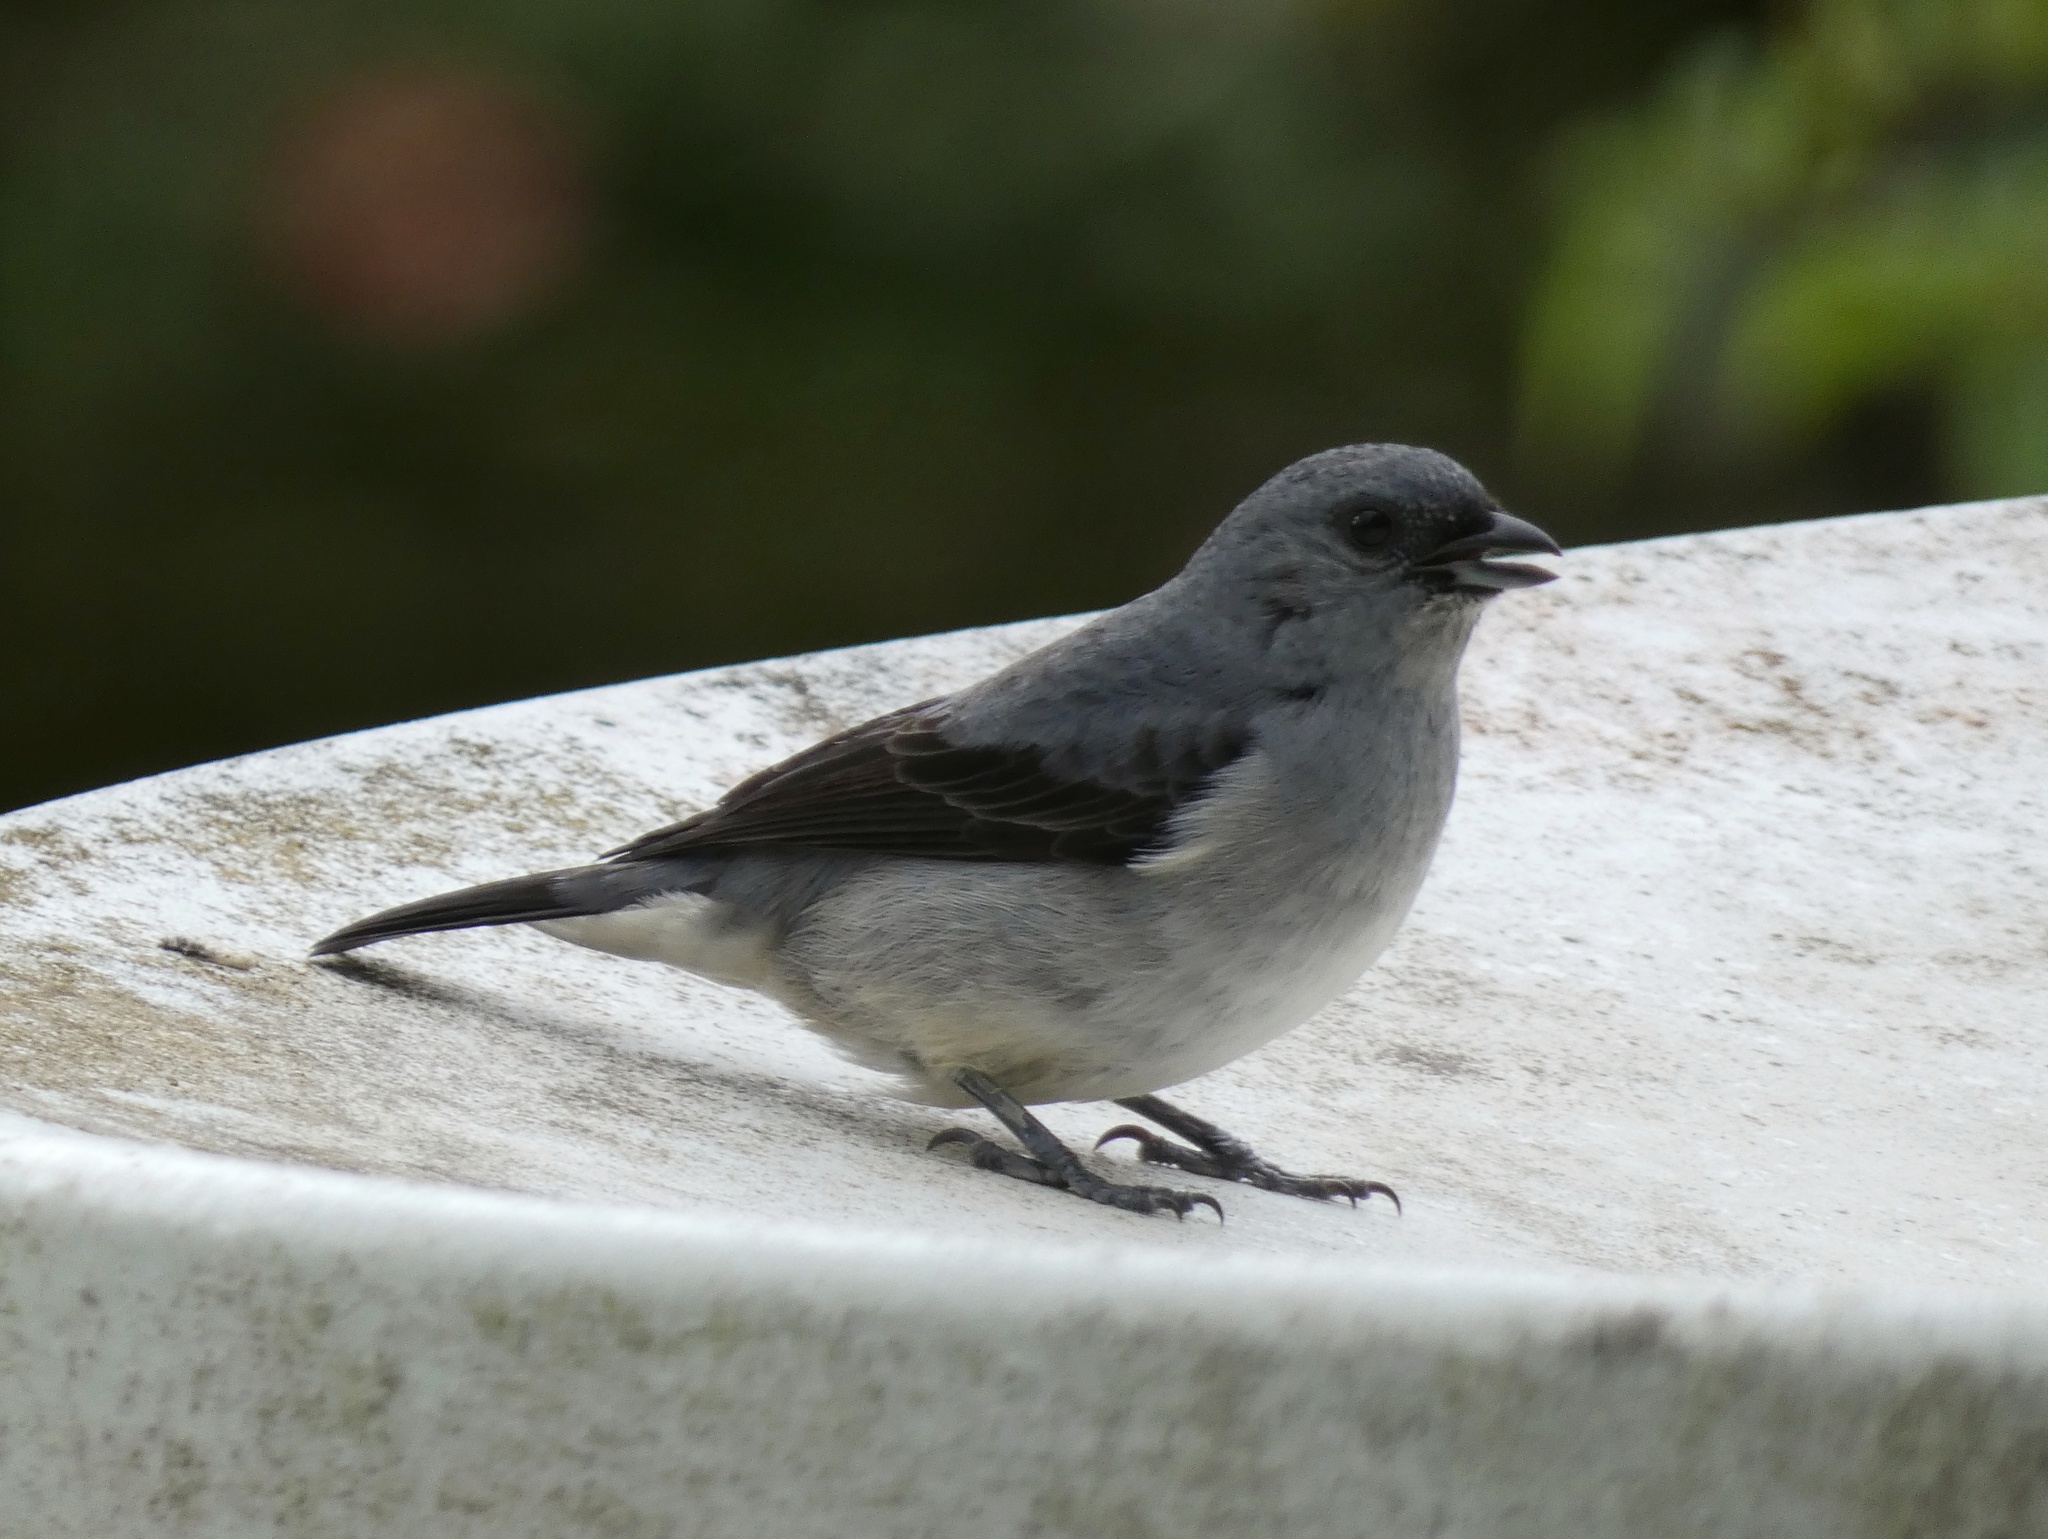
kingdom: Animalia
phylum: Chordata
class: Aves
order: Passeriformes
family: Thraupidae
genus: Tangara
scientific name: Tangara inornata
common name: Plain-colored tanager
